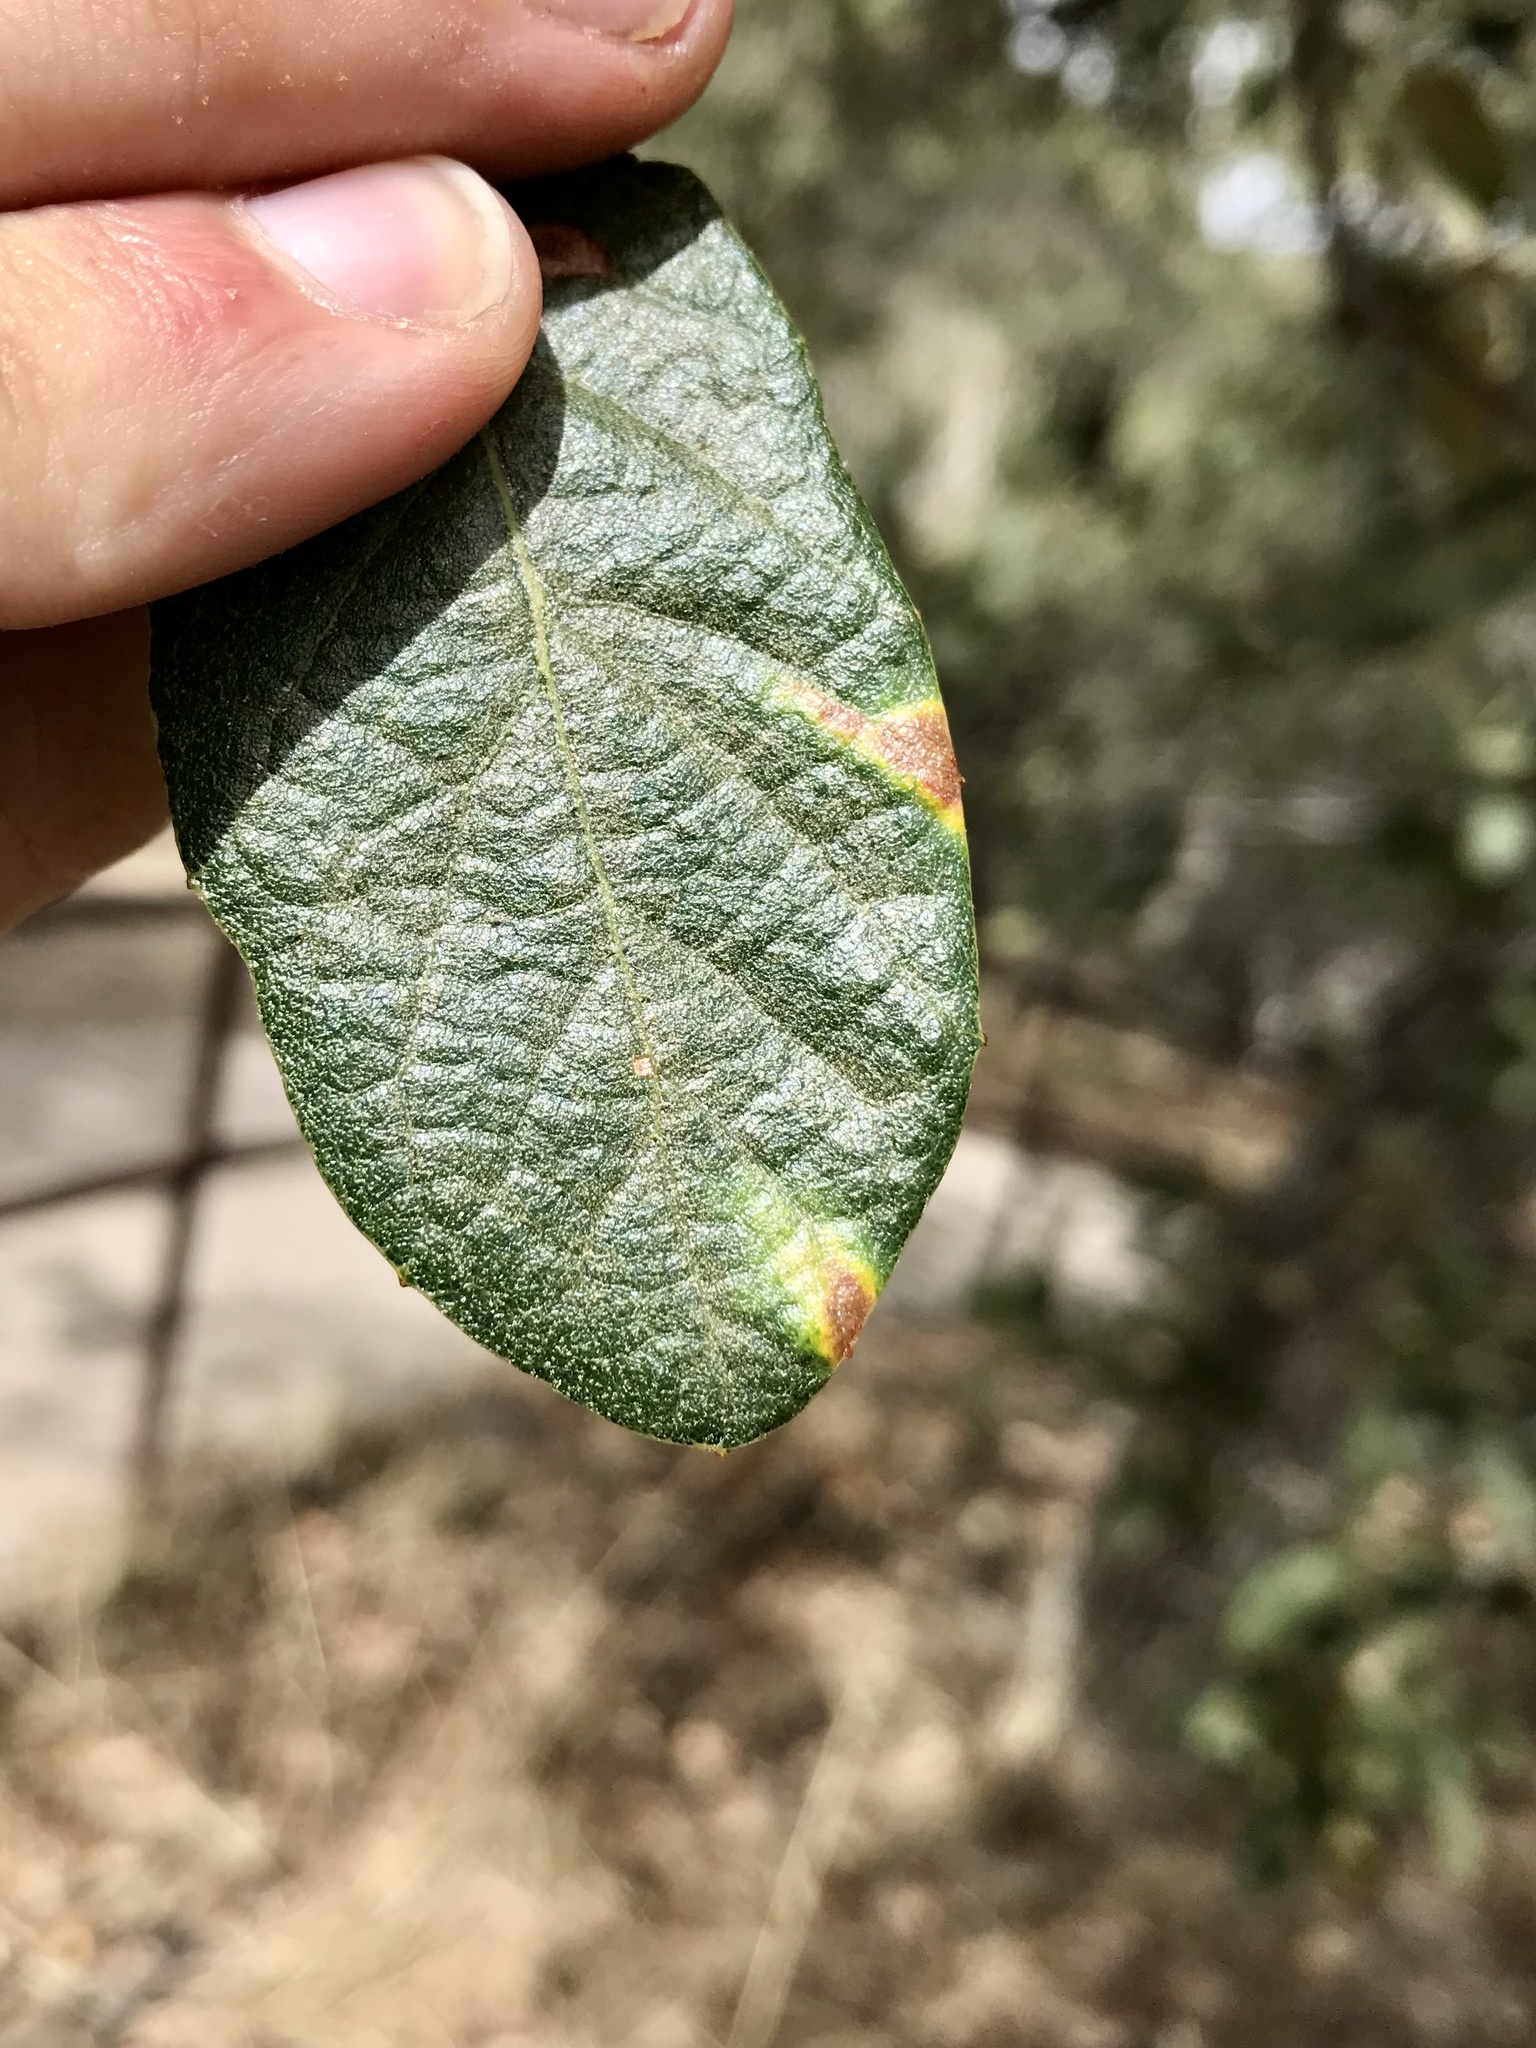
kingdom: Animalia
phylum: Arthropoda
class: Insecta
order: Hymenoptera
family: Cynipidae
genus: Cynips
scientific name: Cynips Antron tomkursari
